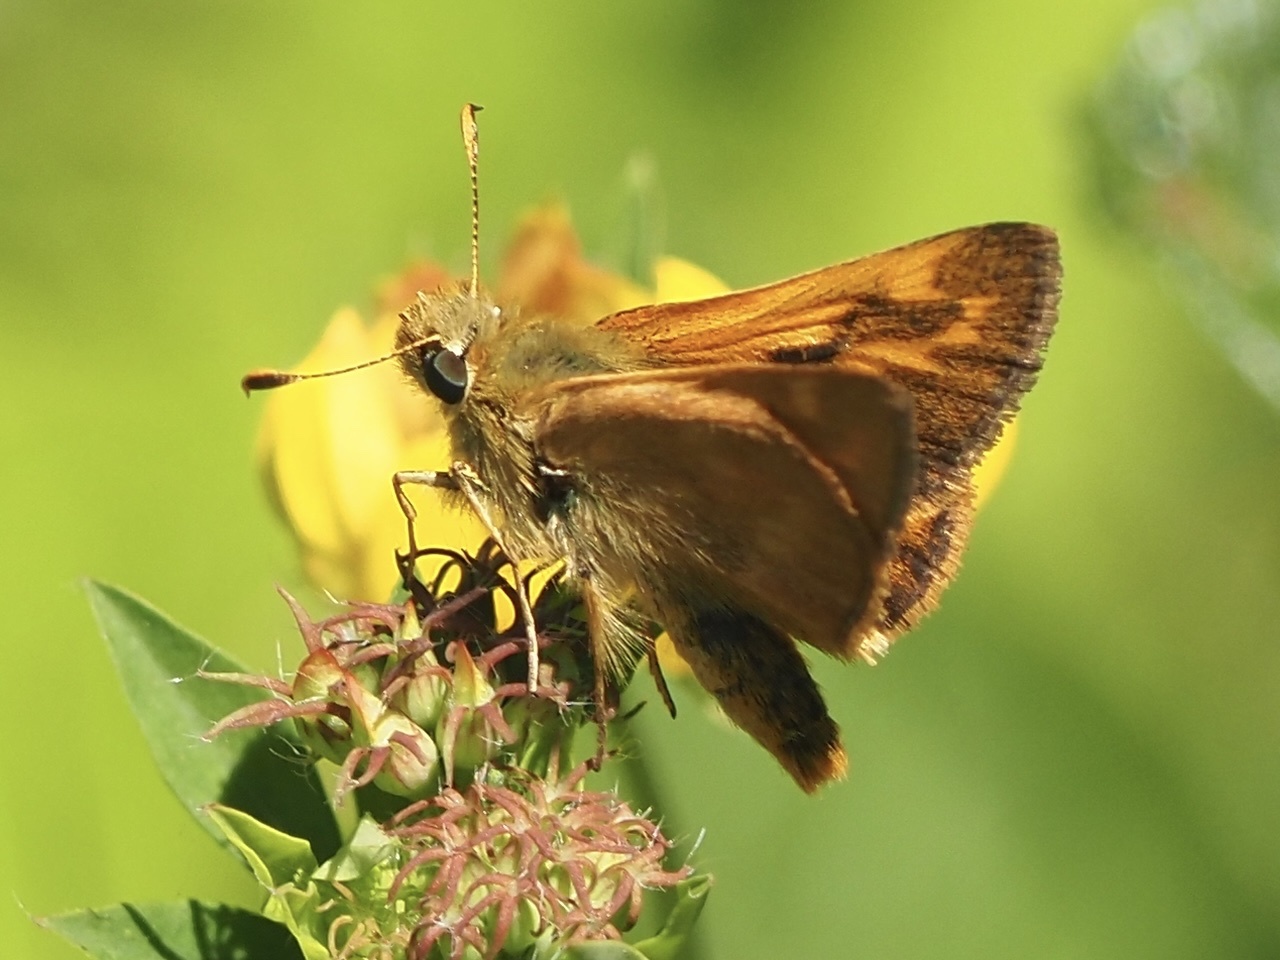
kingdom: Animalia
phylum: Arthropoda
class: Insecta
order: Lepidoptera
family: Hesperiidae
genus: Ochlodes
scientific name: Ochlodes sylvanoides
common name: Woodland skipper
